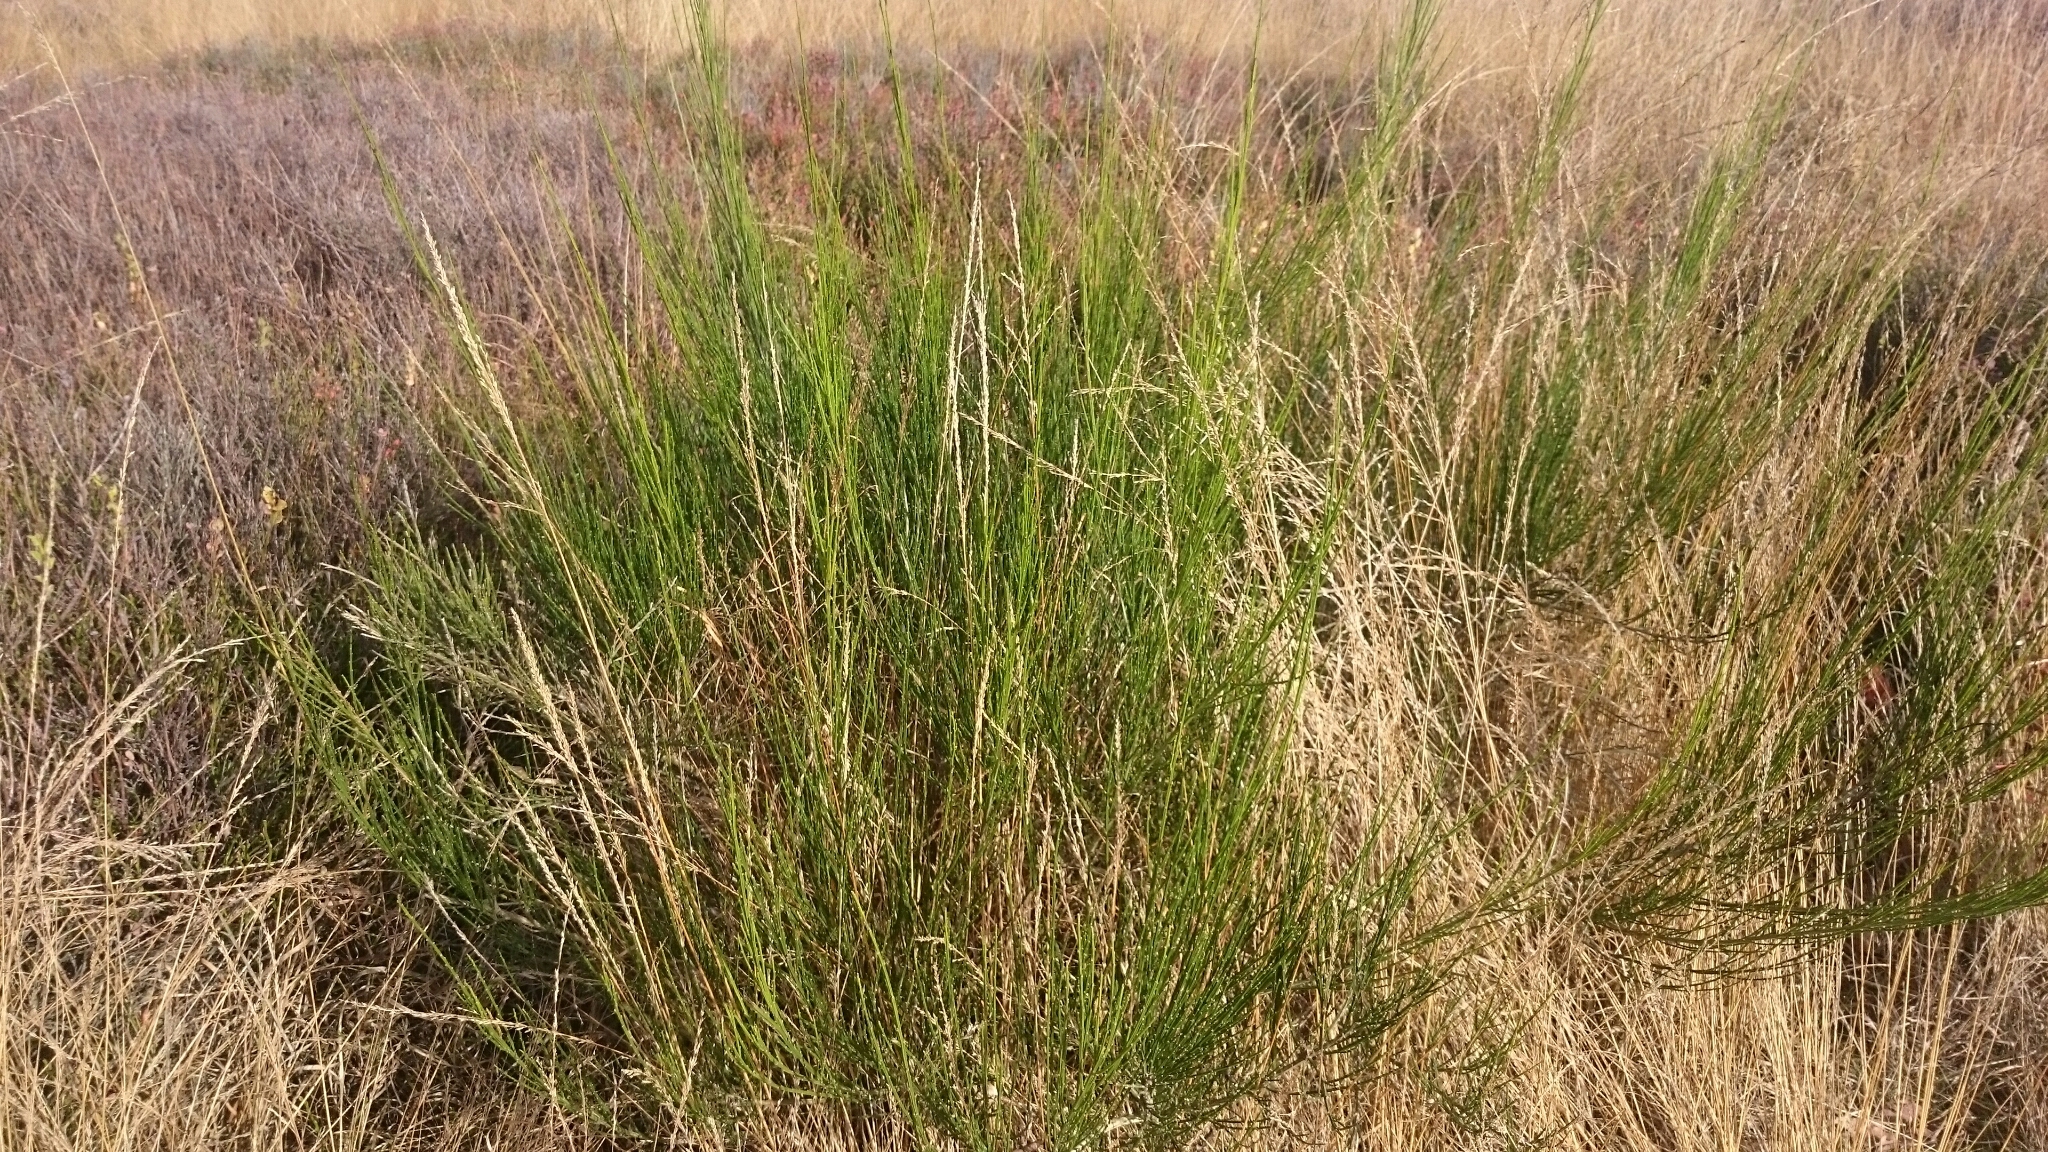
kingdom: Plantae
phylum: Tracheophyta
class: Magnoliopsida
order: Fabales
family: Fabaceae
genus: Cytisus
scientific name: Cytisus scoparius
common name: Scotch broom
